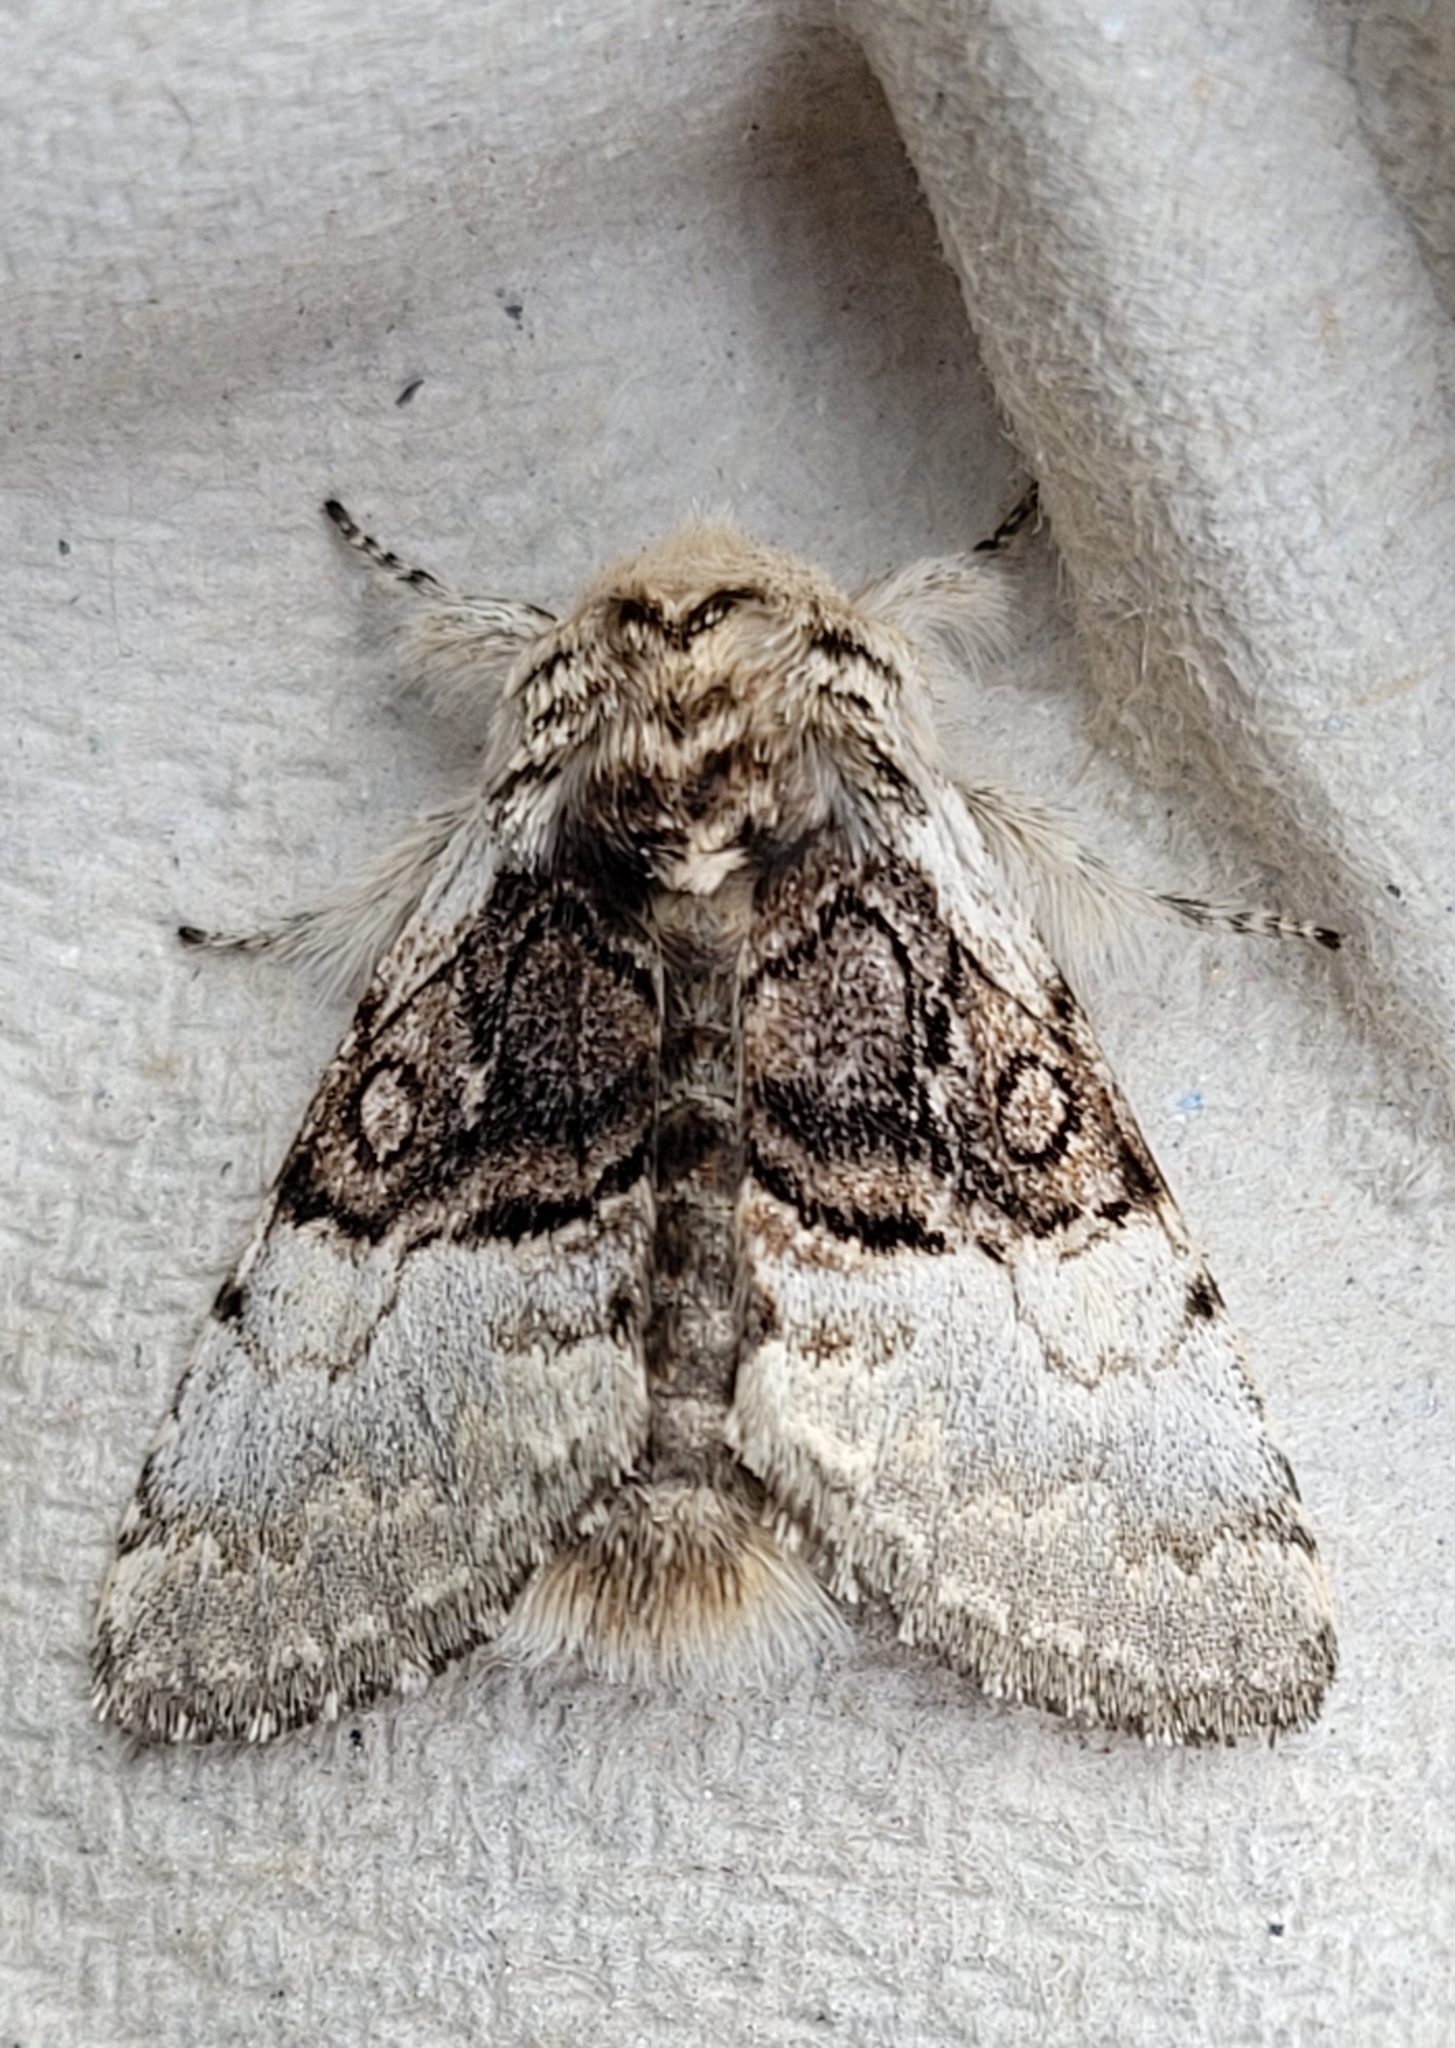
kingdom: Animalia
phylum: Arthropoda
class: Insecta
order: Lepidoptera
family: Noctuidae
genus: Colocasia
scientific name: Colocasia coryli
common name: Nut-tree tussock
